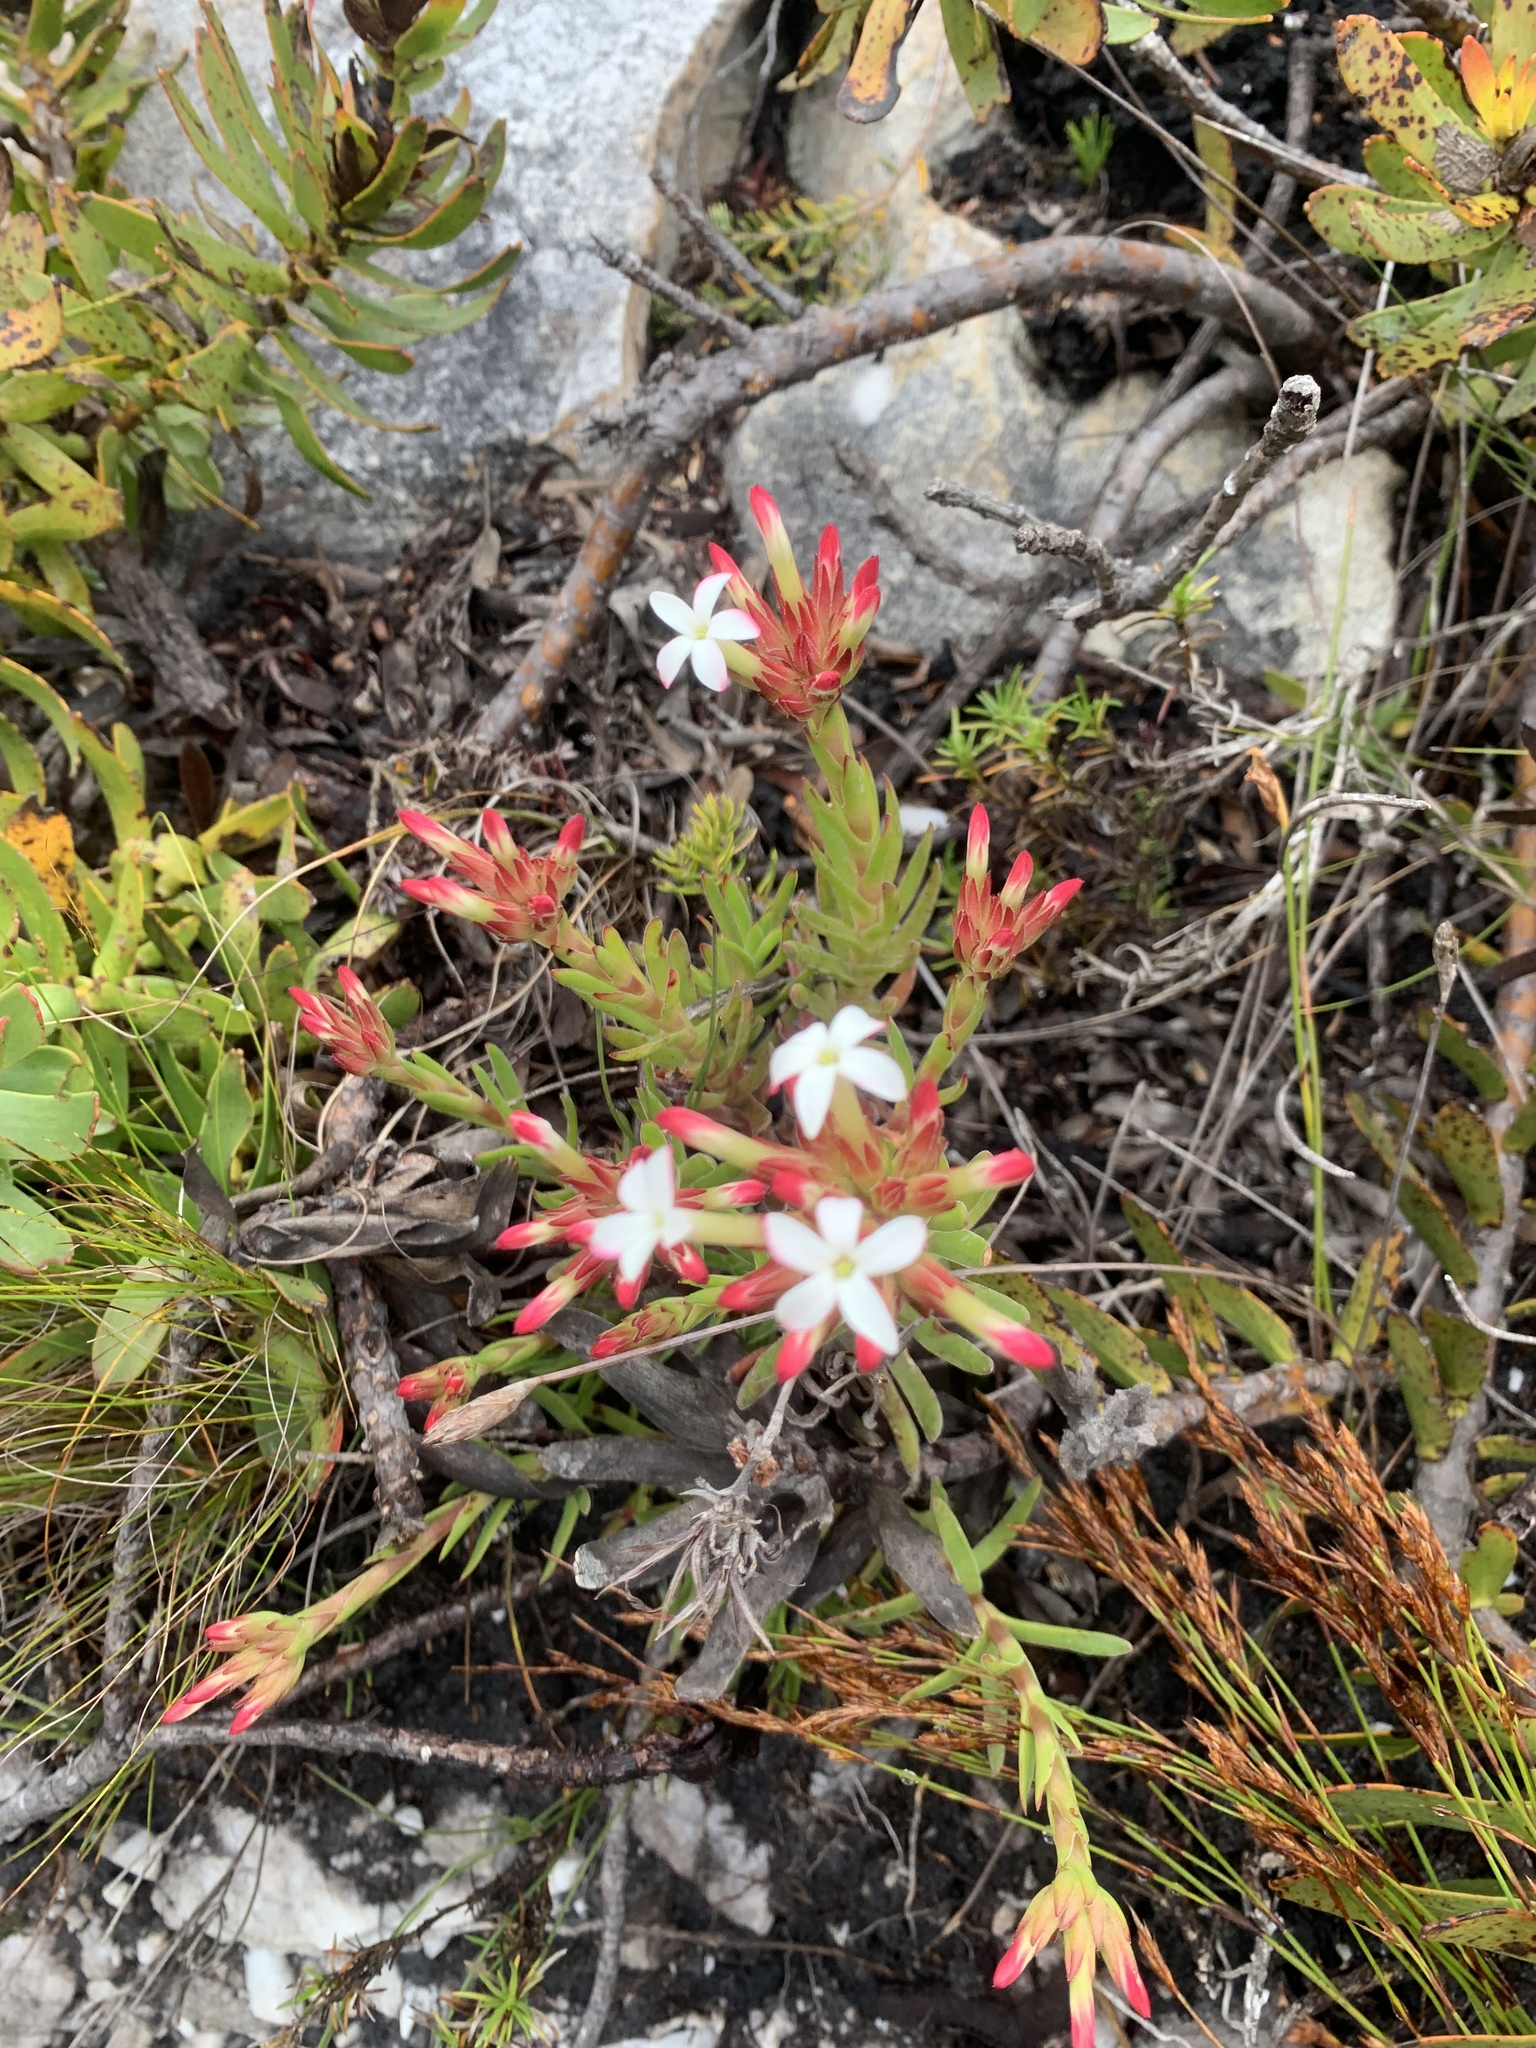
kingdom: Plantae
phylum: Tracheophyta
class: Magnoliopsida
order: Saxifragales
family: Crassulaceae
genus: Crassula
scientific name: Crassula fascicularis
